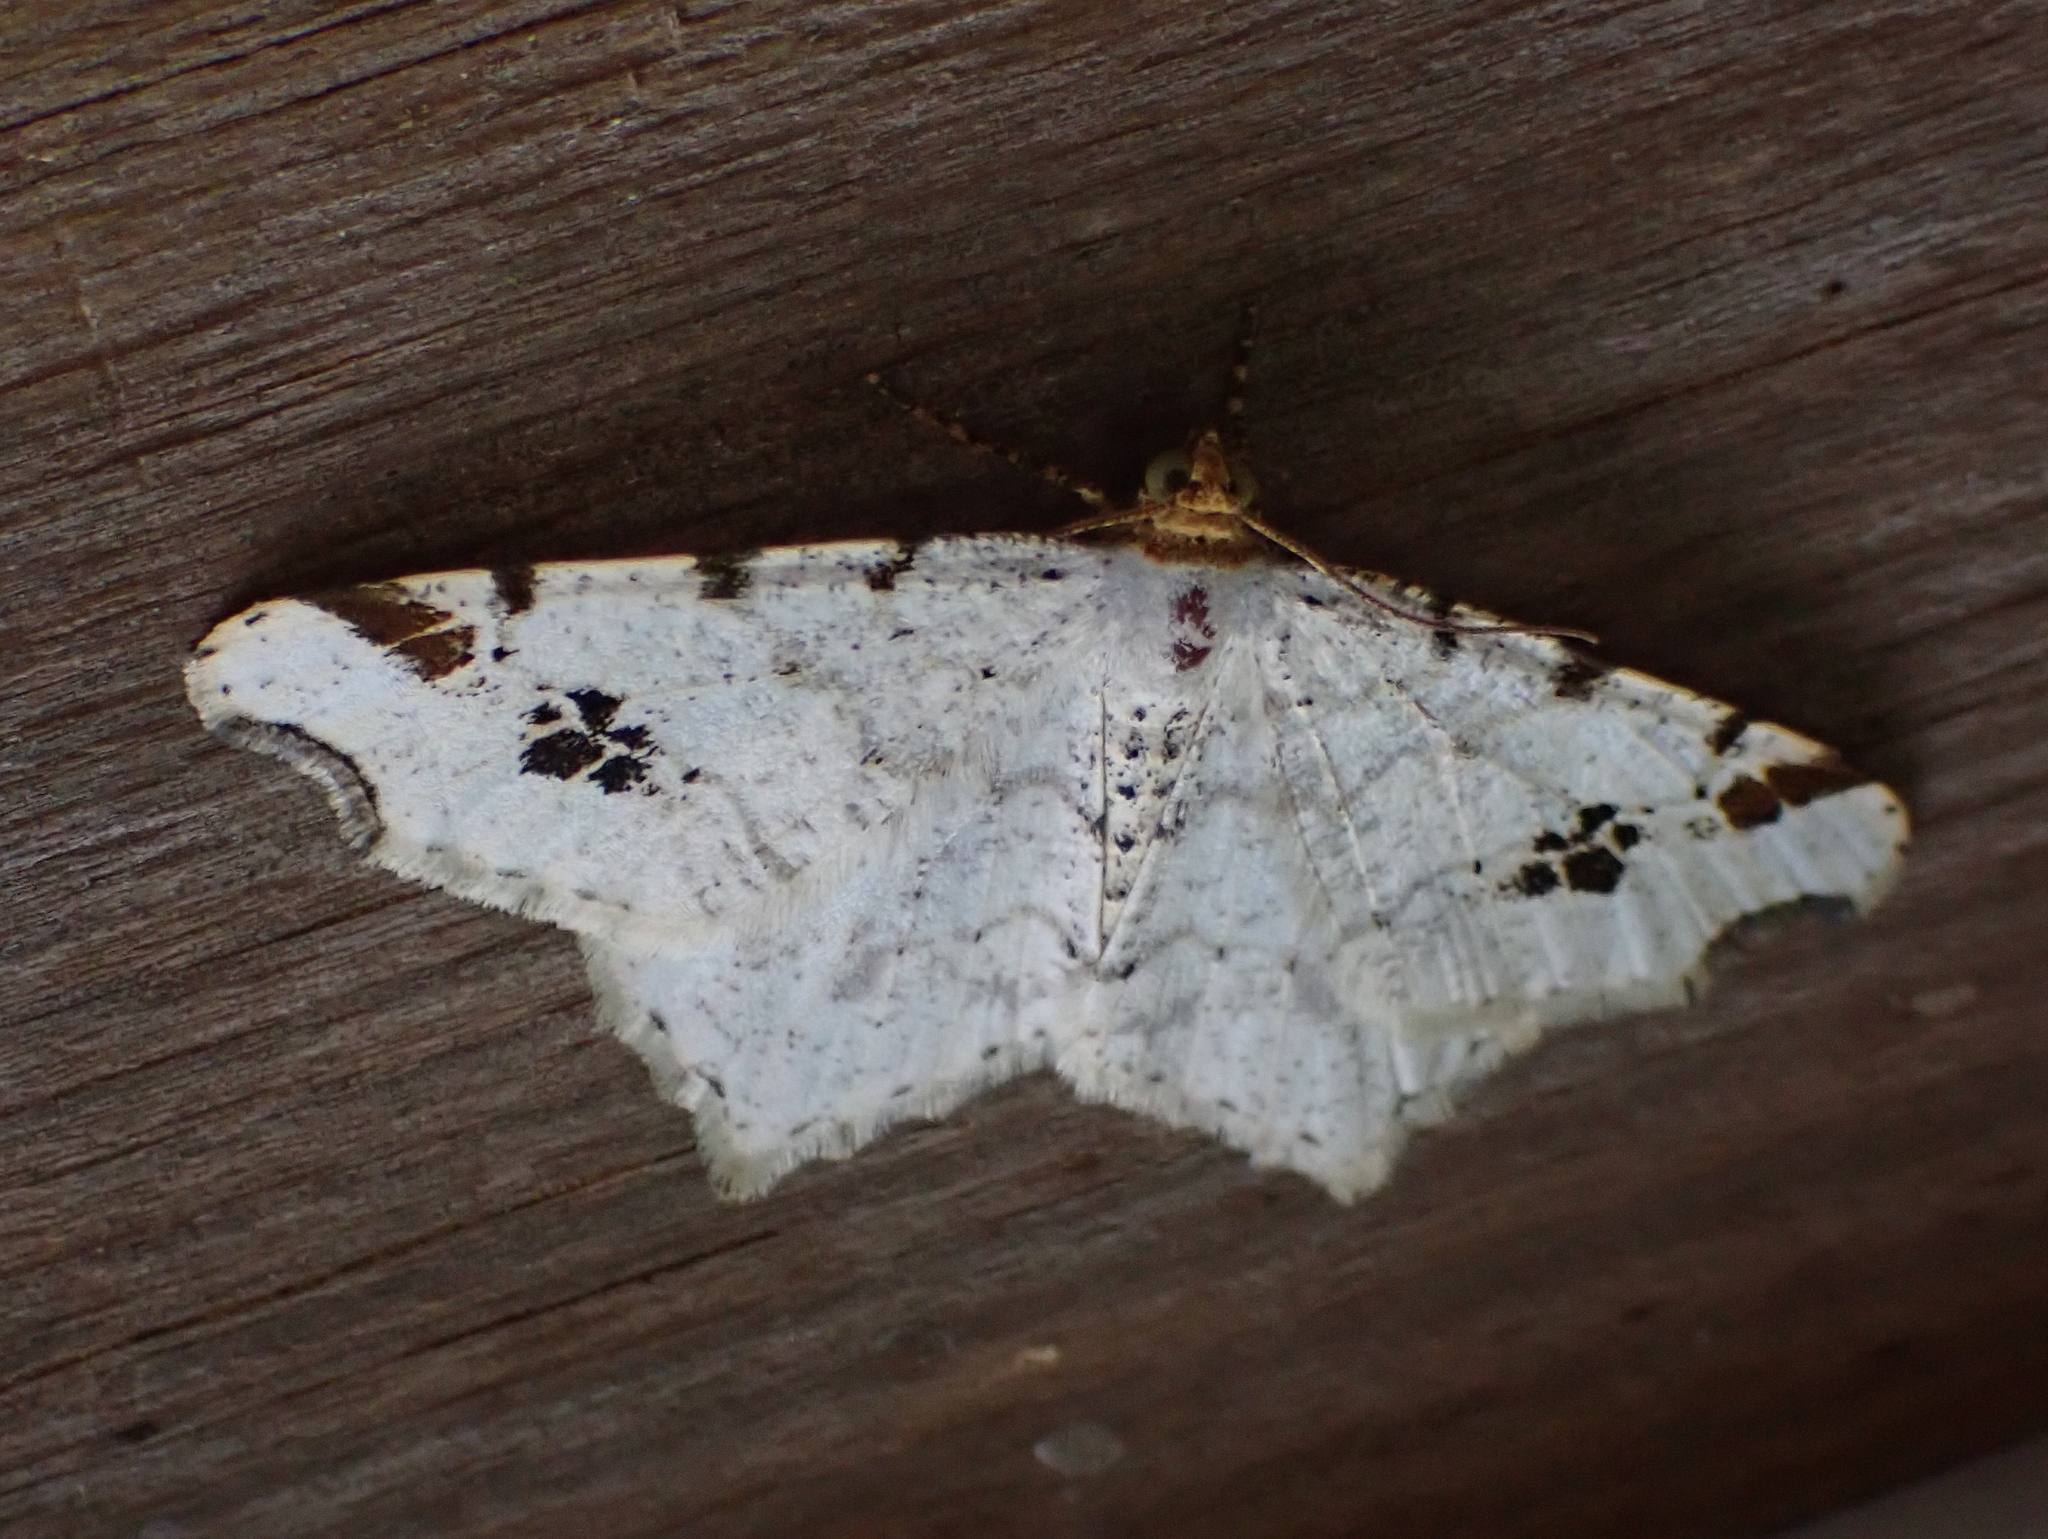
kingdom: Animalia
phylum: Arthropoda
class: Insecta
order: Lepidoptera
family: Geometridae
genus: Macaria
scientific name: Macaria ulsterata
